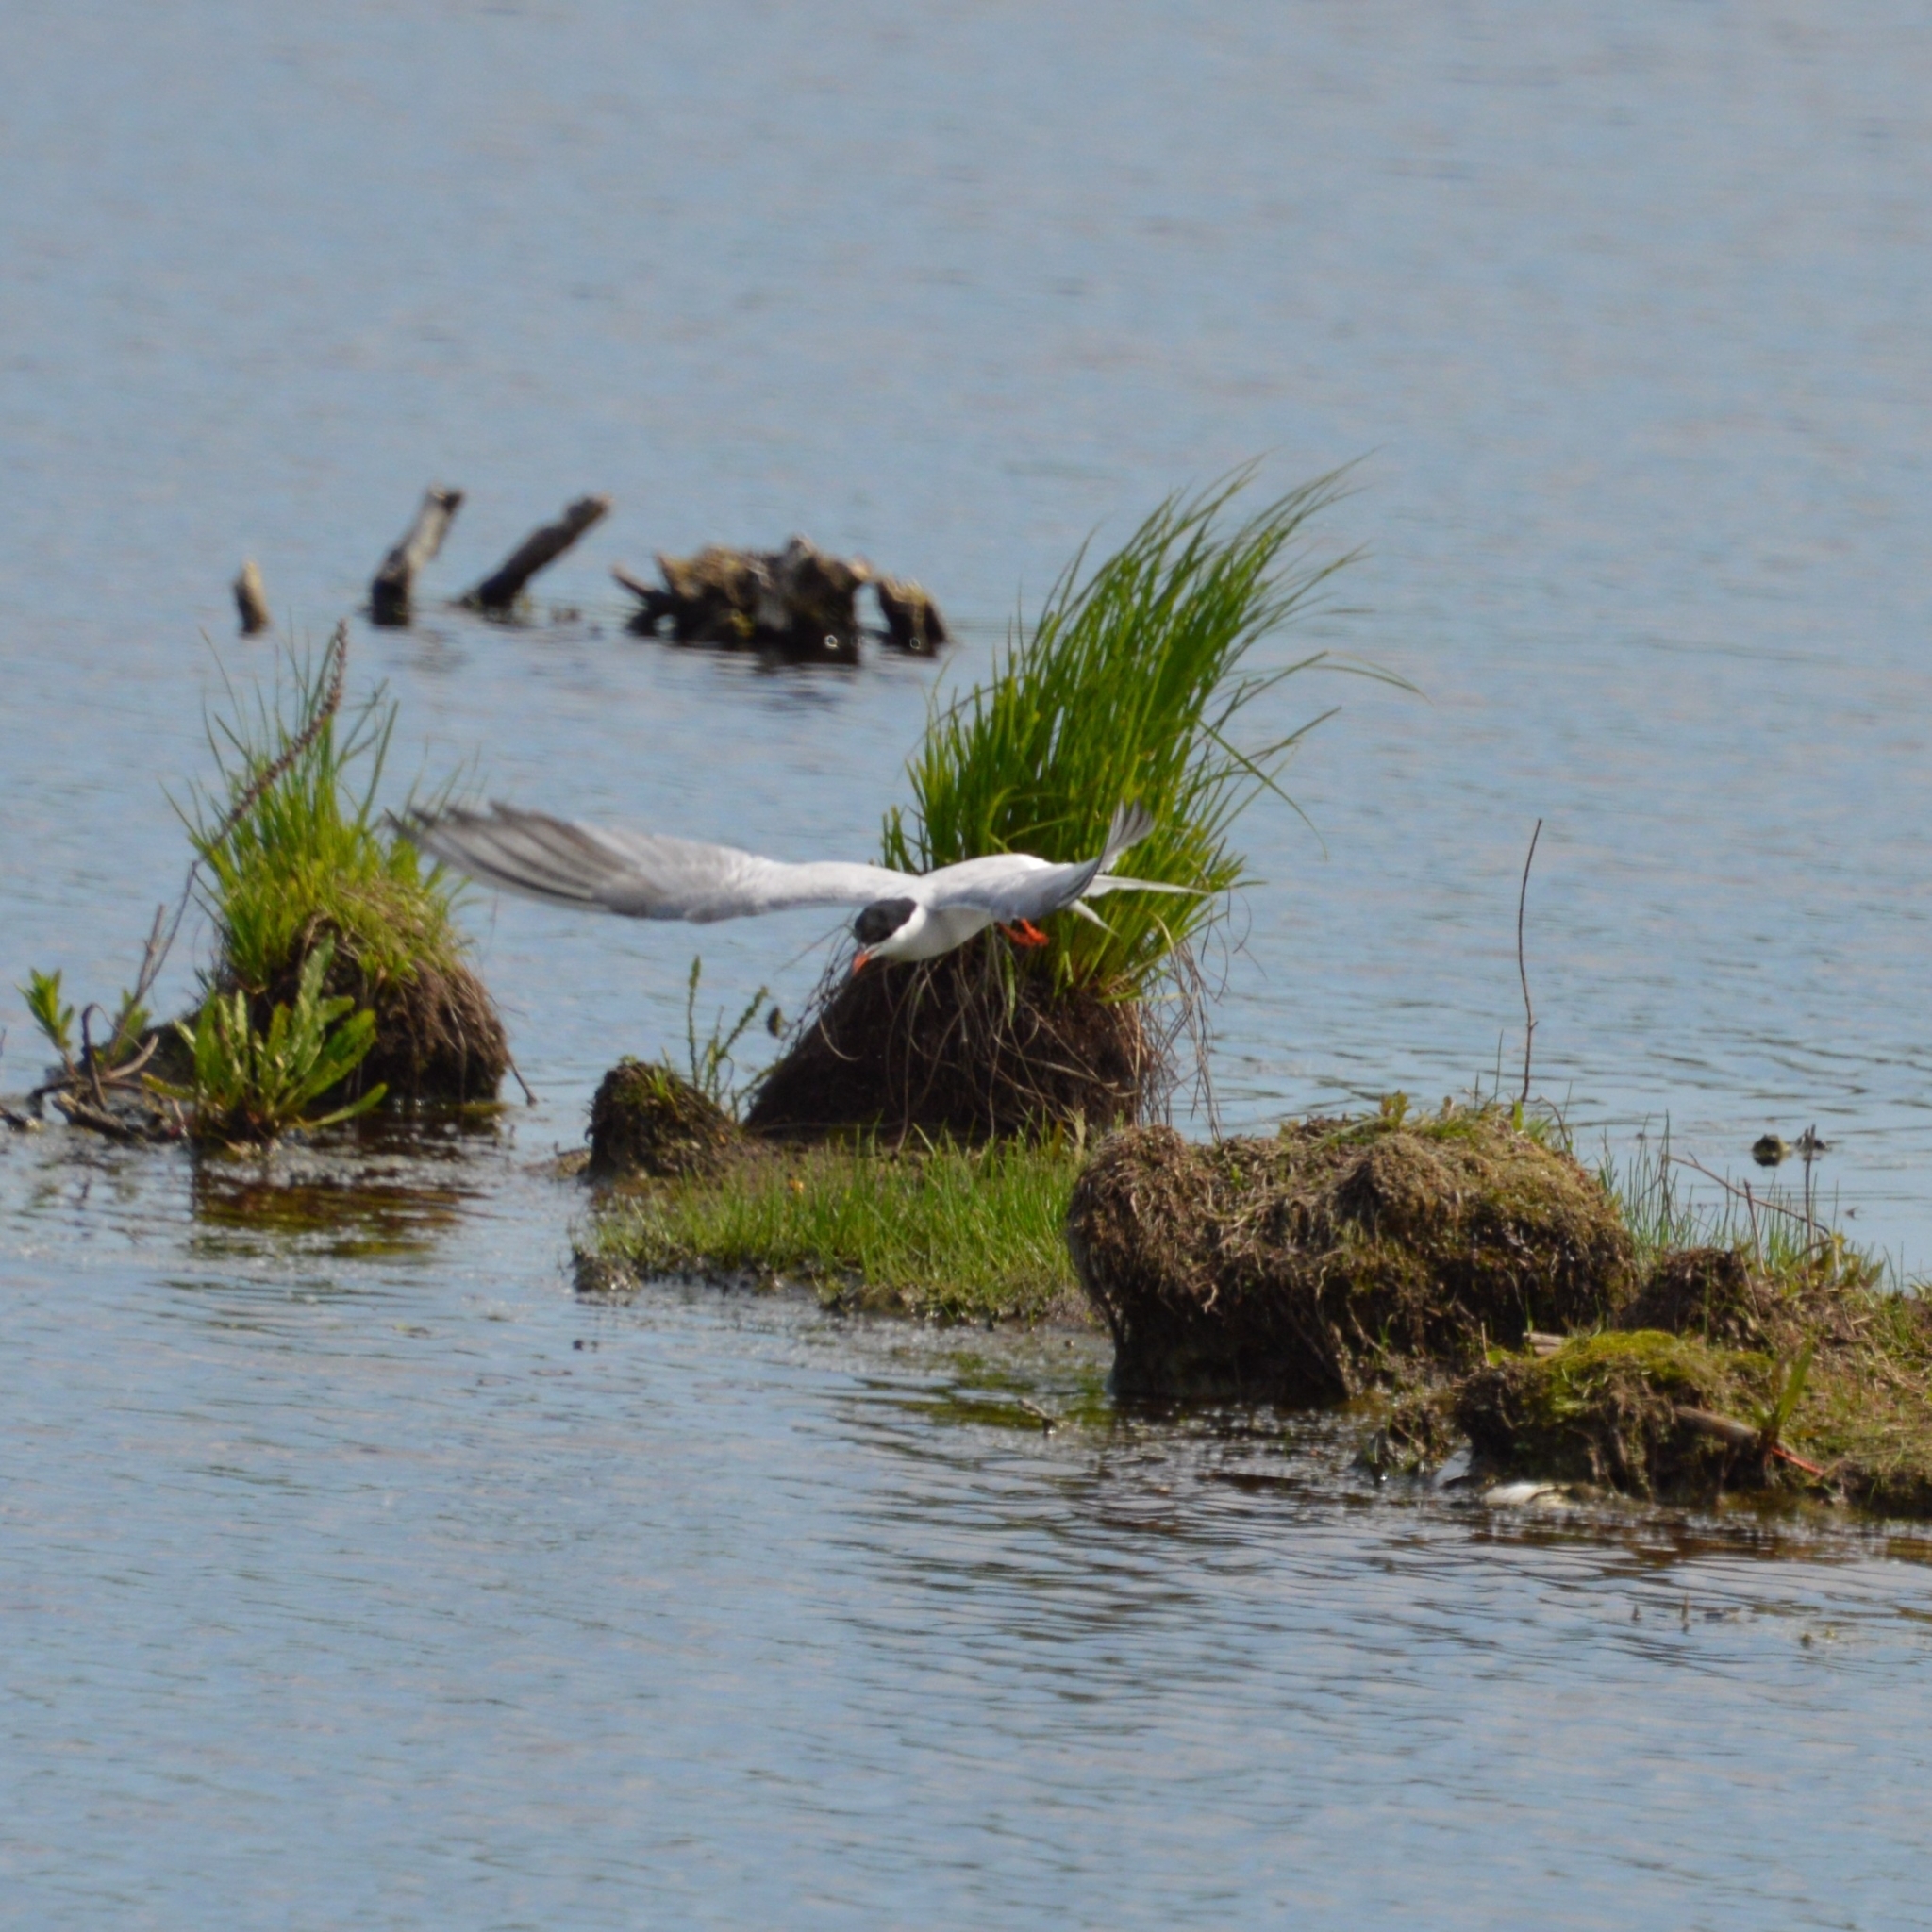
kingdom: Animalia
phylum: Chordata
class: Aves
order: Charadriiformes
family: Laridae
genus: Sterna
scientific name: Sterna hirundo
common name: Common tern
